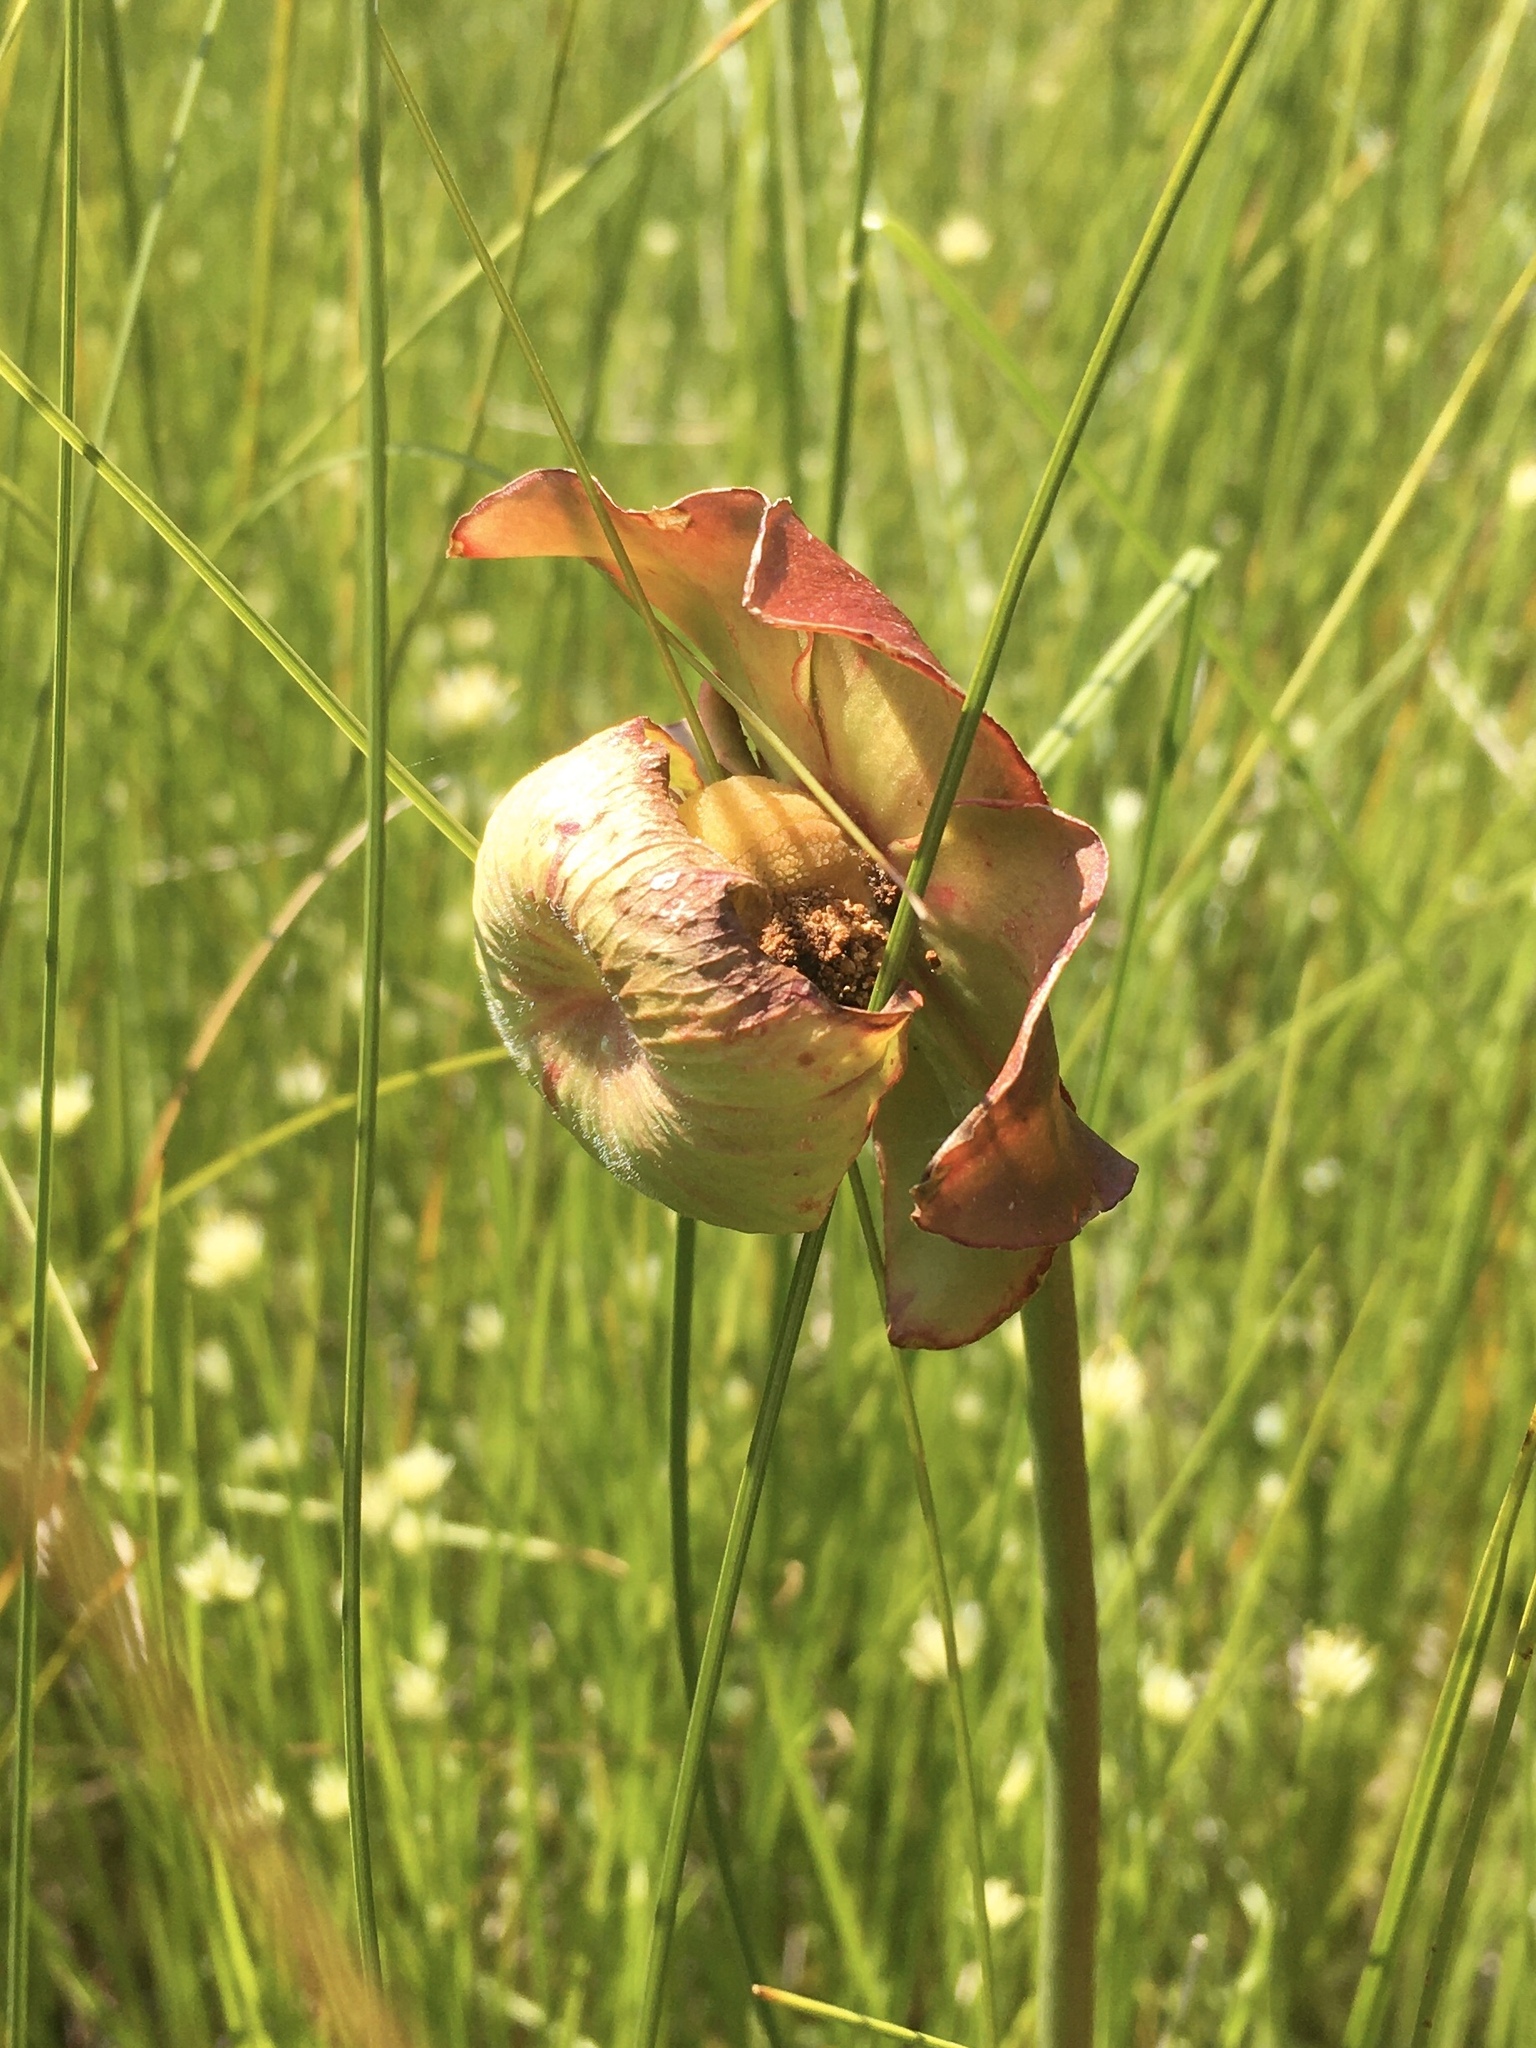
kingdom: Plantae
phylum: Tracheophyta
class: Magnoliopsida
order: Ericales
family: Sarraceniaceae
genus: Sarracenia
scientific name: Sarracenia purpurea
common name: Pitcherplant
